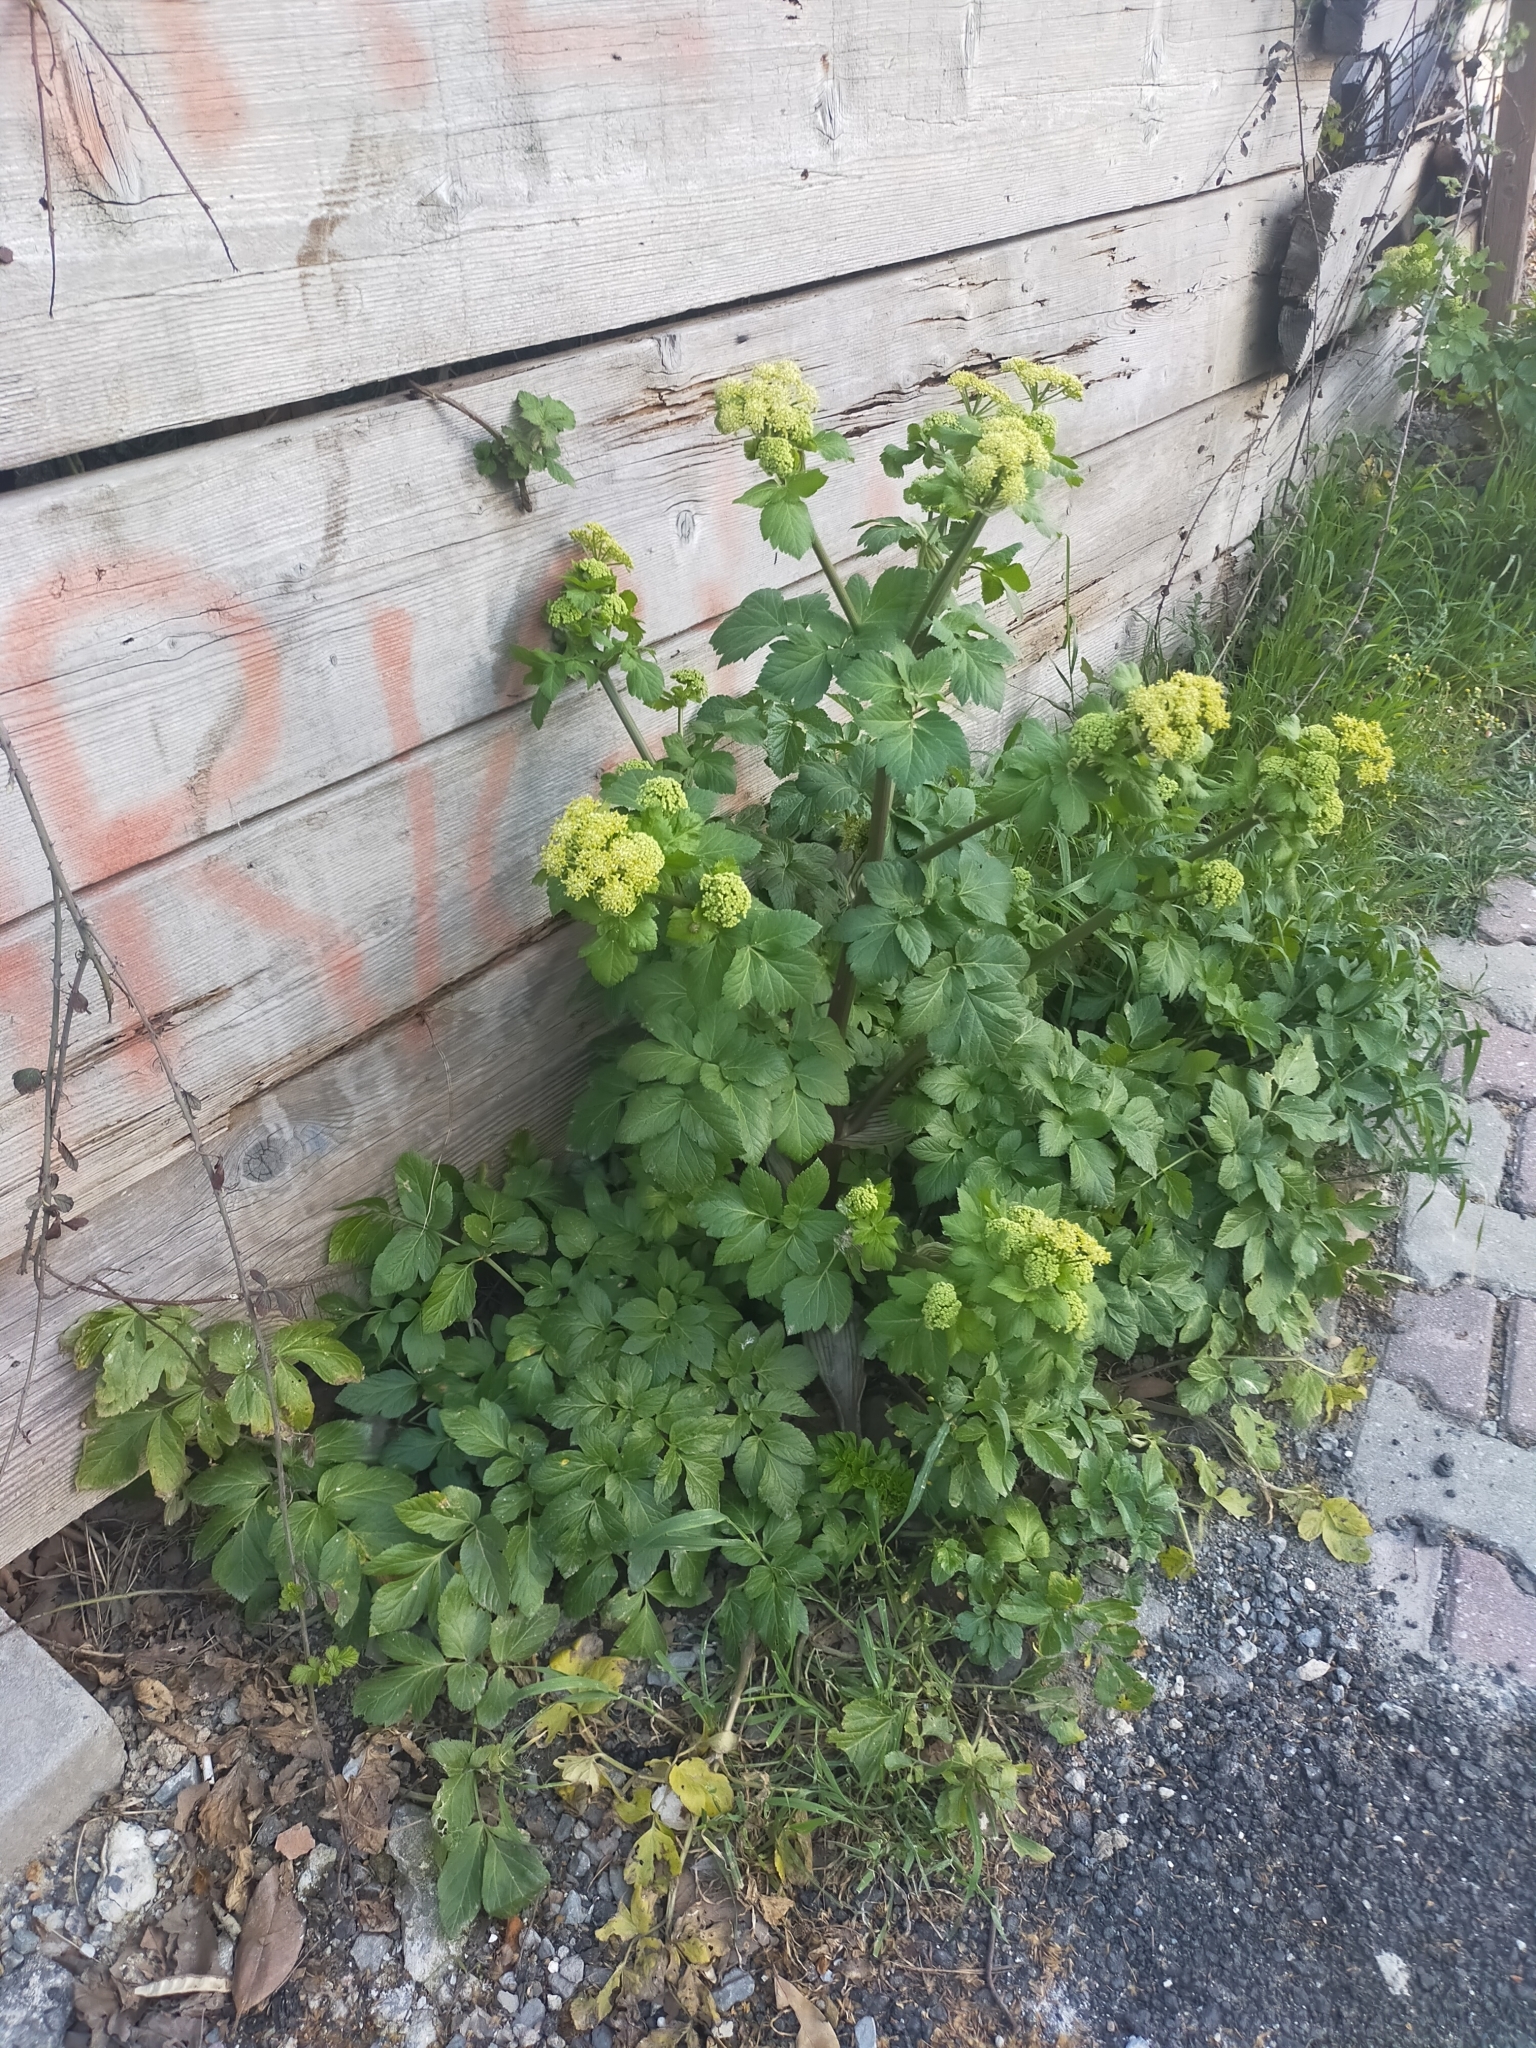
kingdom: Plantae
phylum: Tracheophyta
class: Magnoliopsida
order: Apiales
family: Apiaceae
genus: Smyrnium
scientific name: Smyrnium olusatrum
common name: Alexanders
